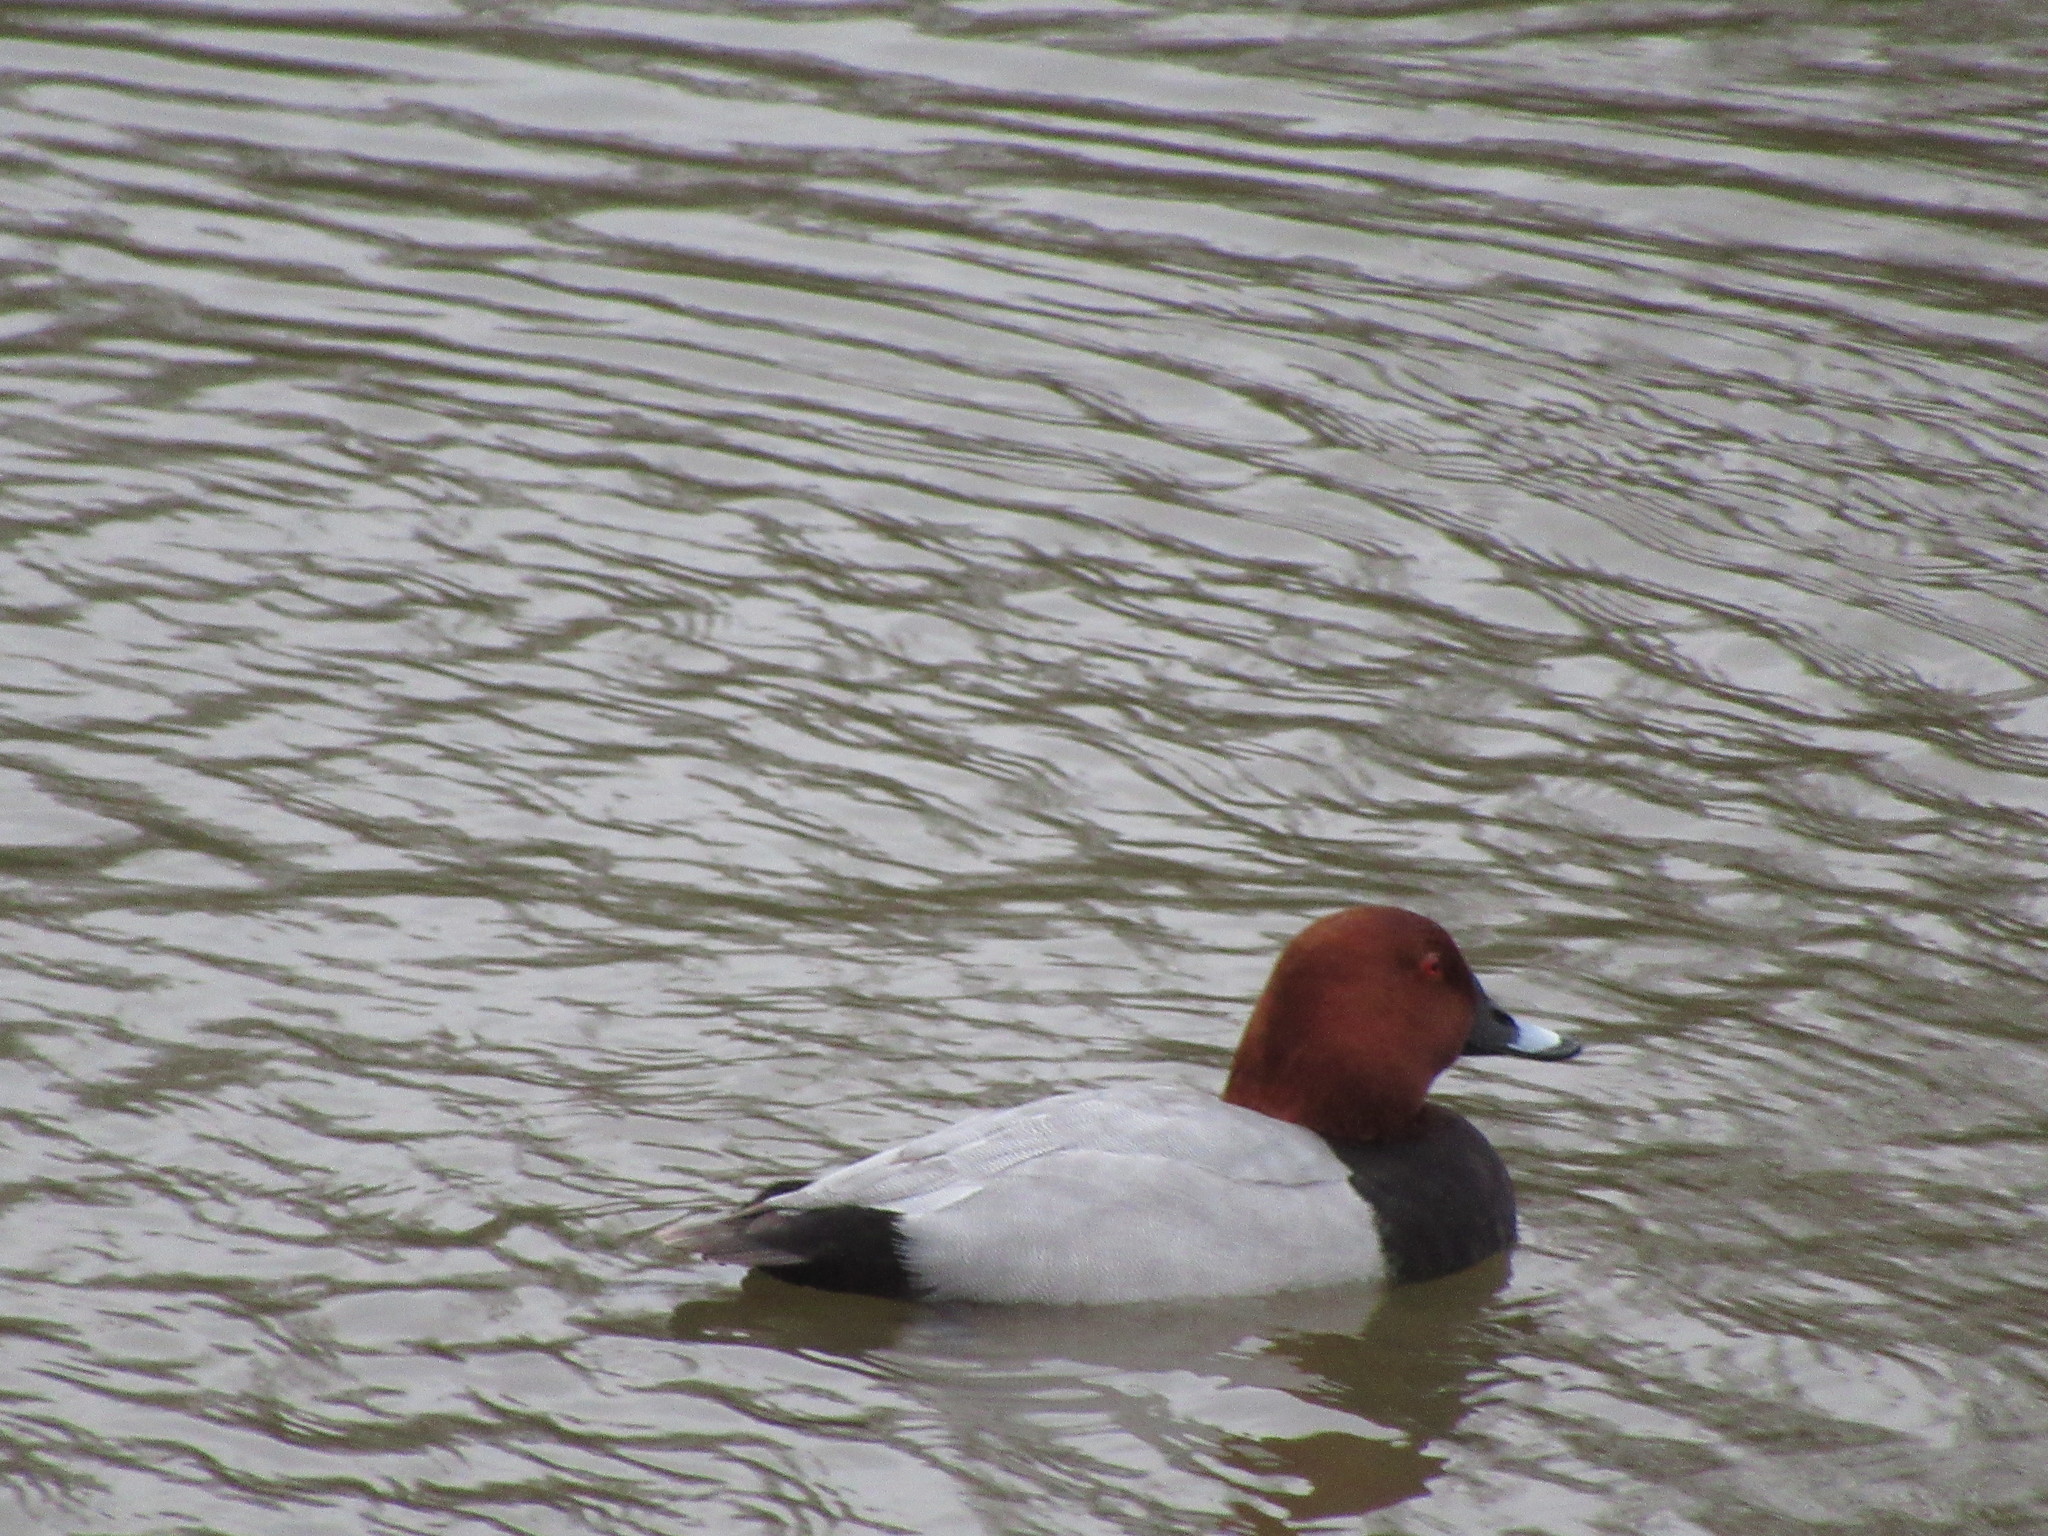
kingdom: Animalia
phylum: Chordata
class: Aves
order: Anseriformes
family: Anatidae
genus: Aythya
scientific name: Aythya ferina
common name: Common pochard
